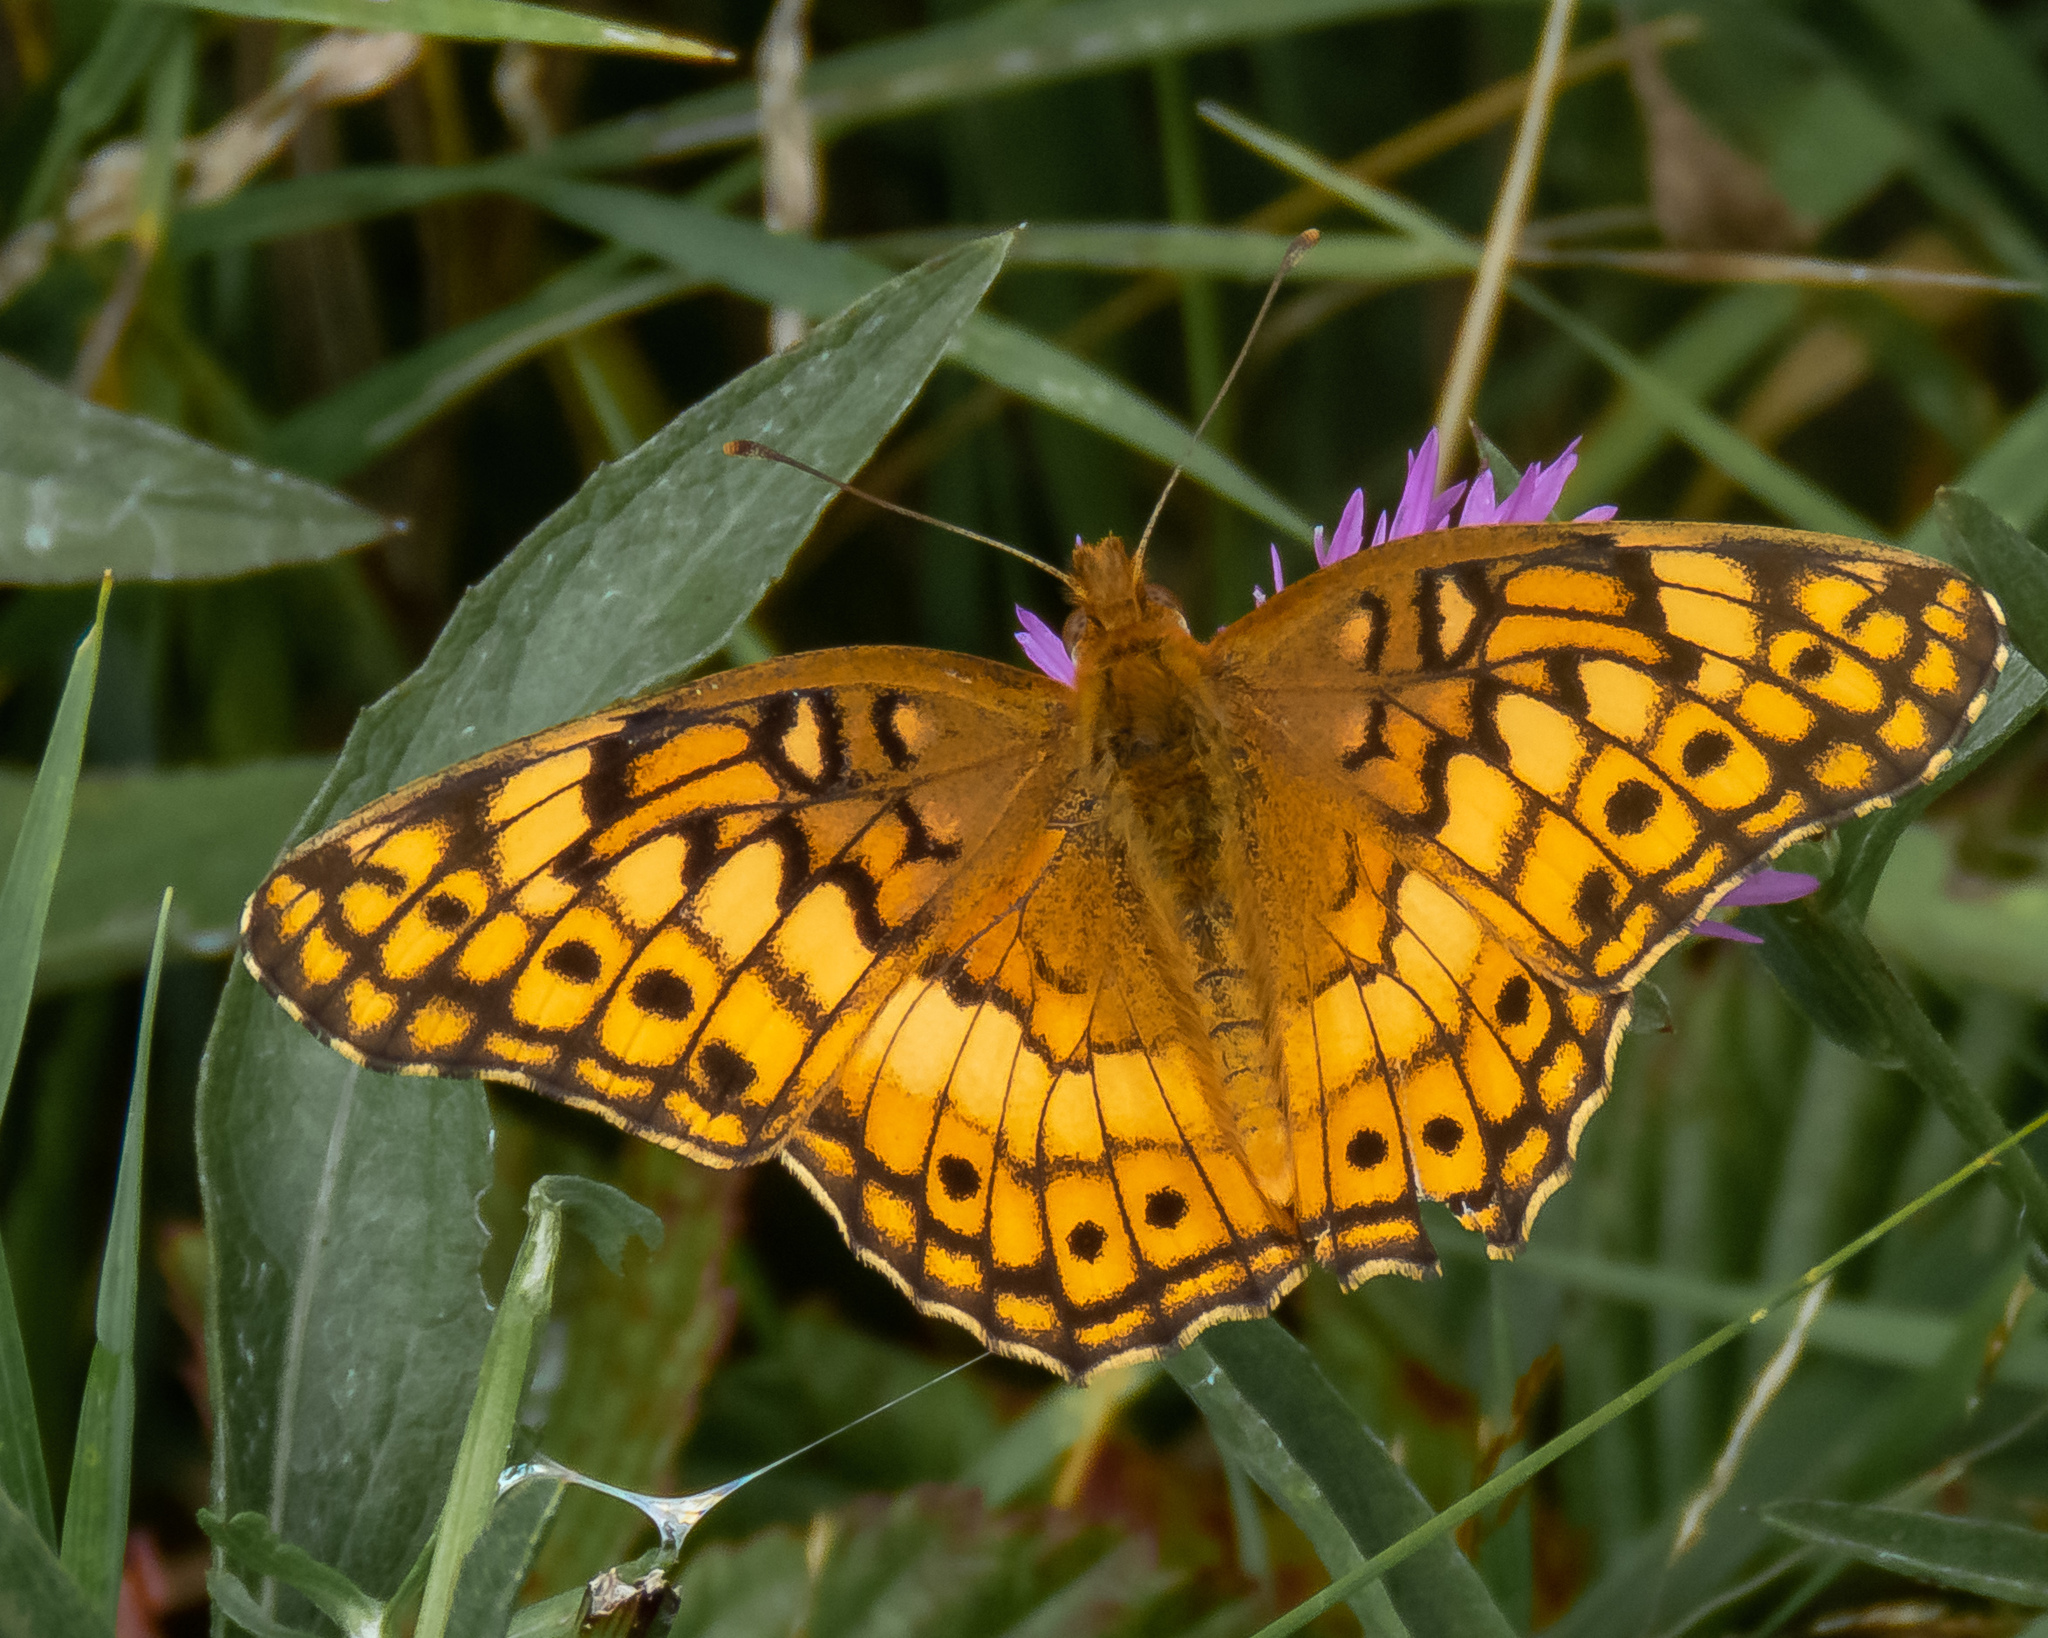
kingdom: Animalia
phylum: Arthropoda
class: Insecta
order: Lepidoptera
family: Nymphalidae
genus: Euptoieta
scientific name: Euptoieta claudia
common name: Variegated fritillary
